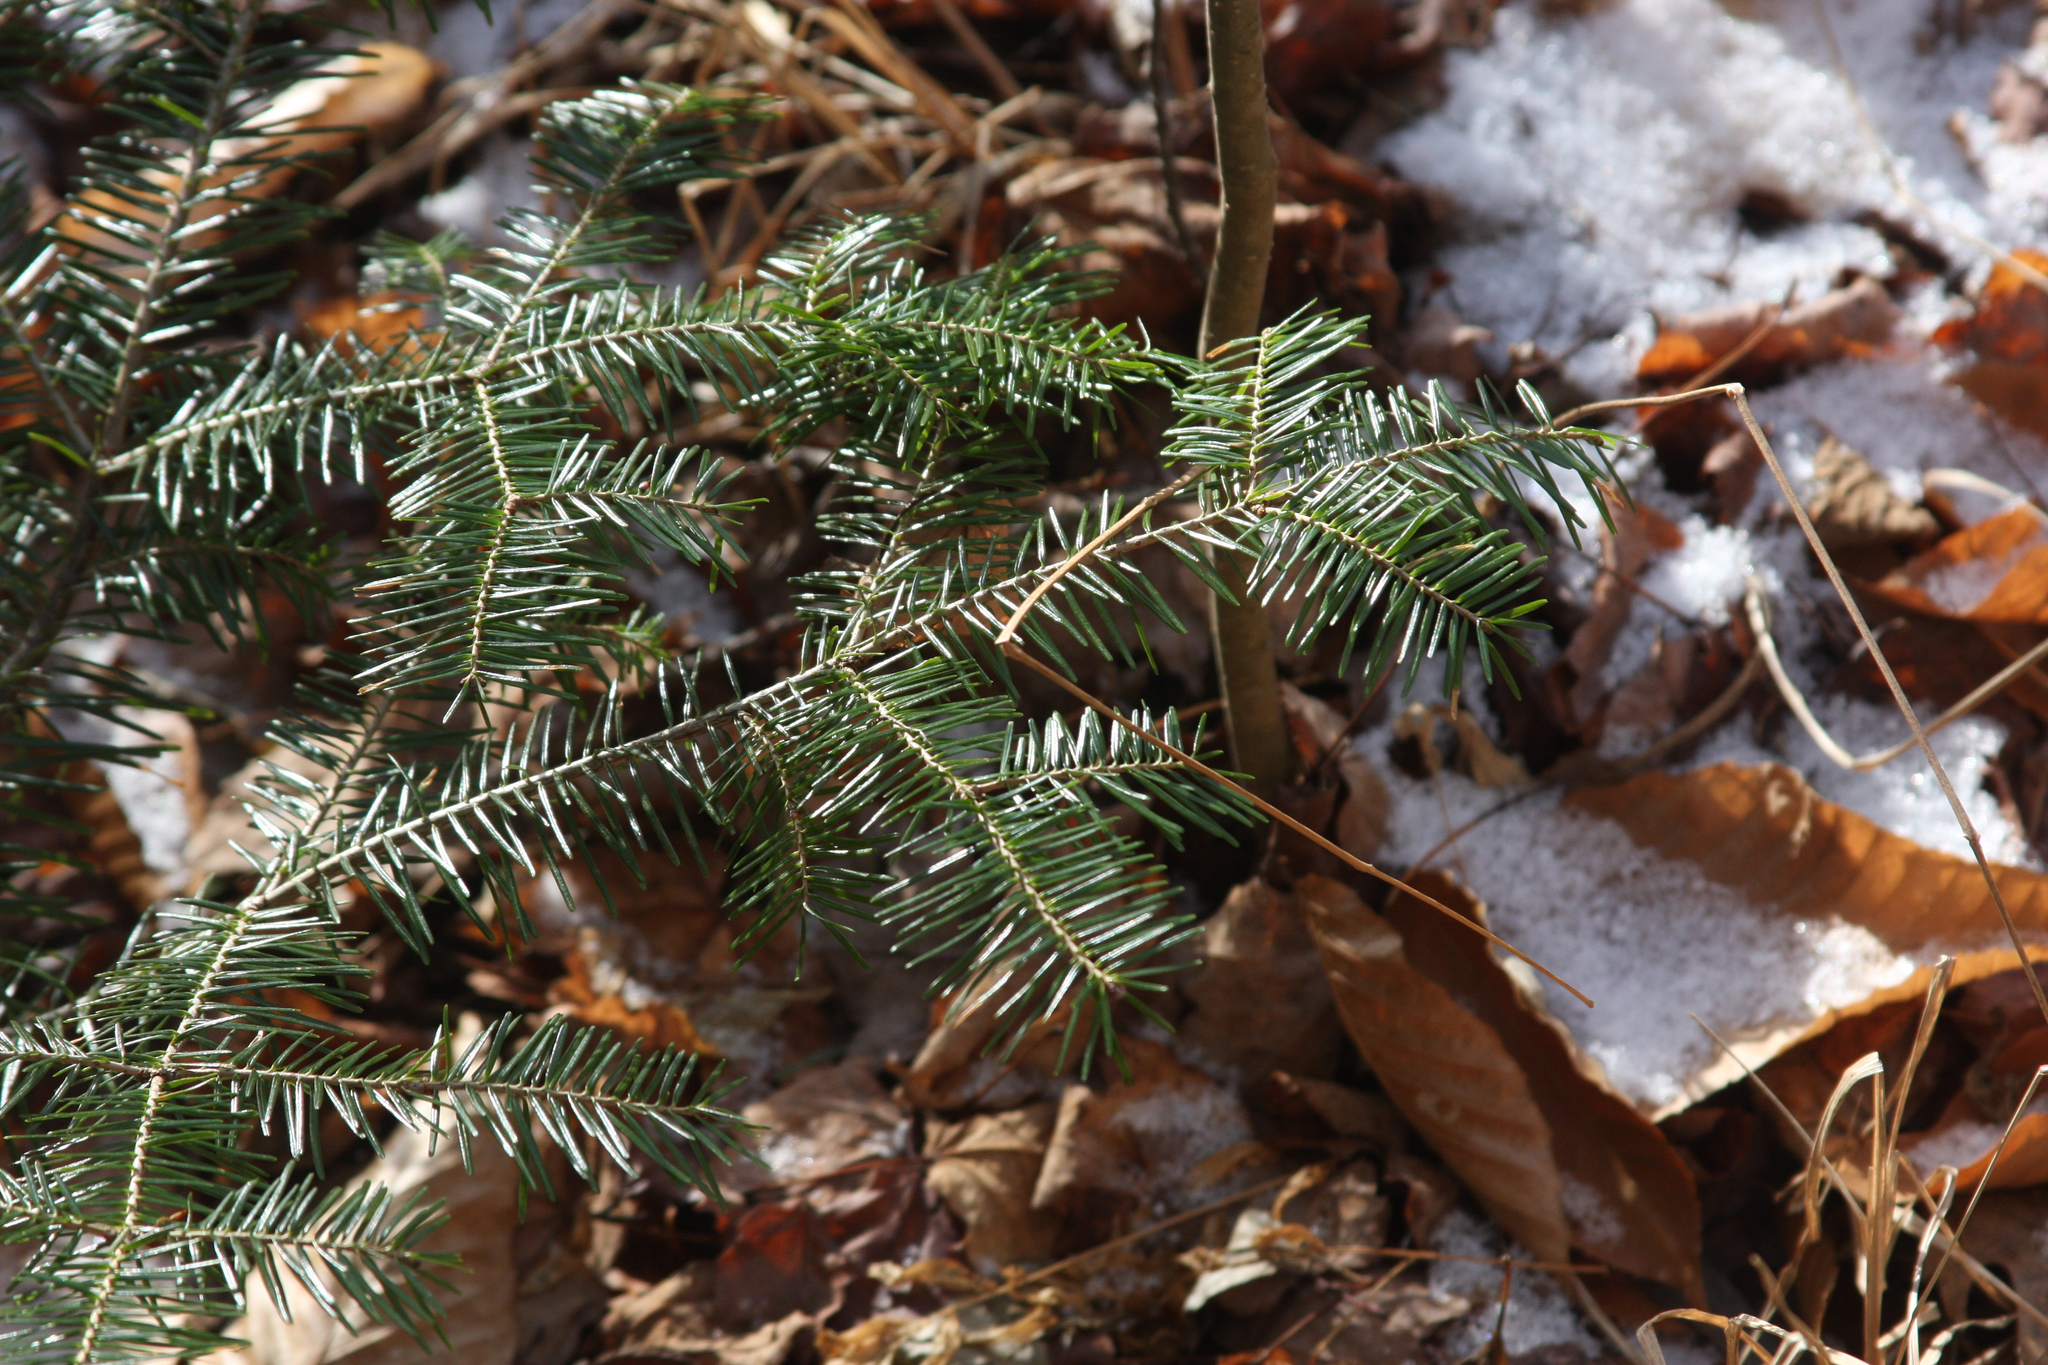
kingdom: Plantae
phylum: Tracheophyta
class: Pinopsida
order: Pinales
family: Pinaceae
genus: Abies
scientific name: Abies balsamea
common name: Balsam fir
